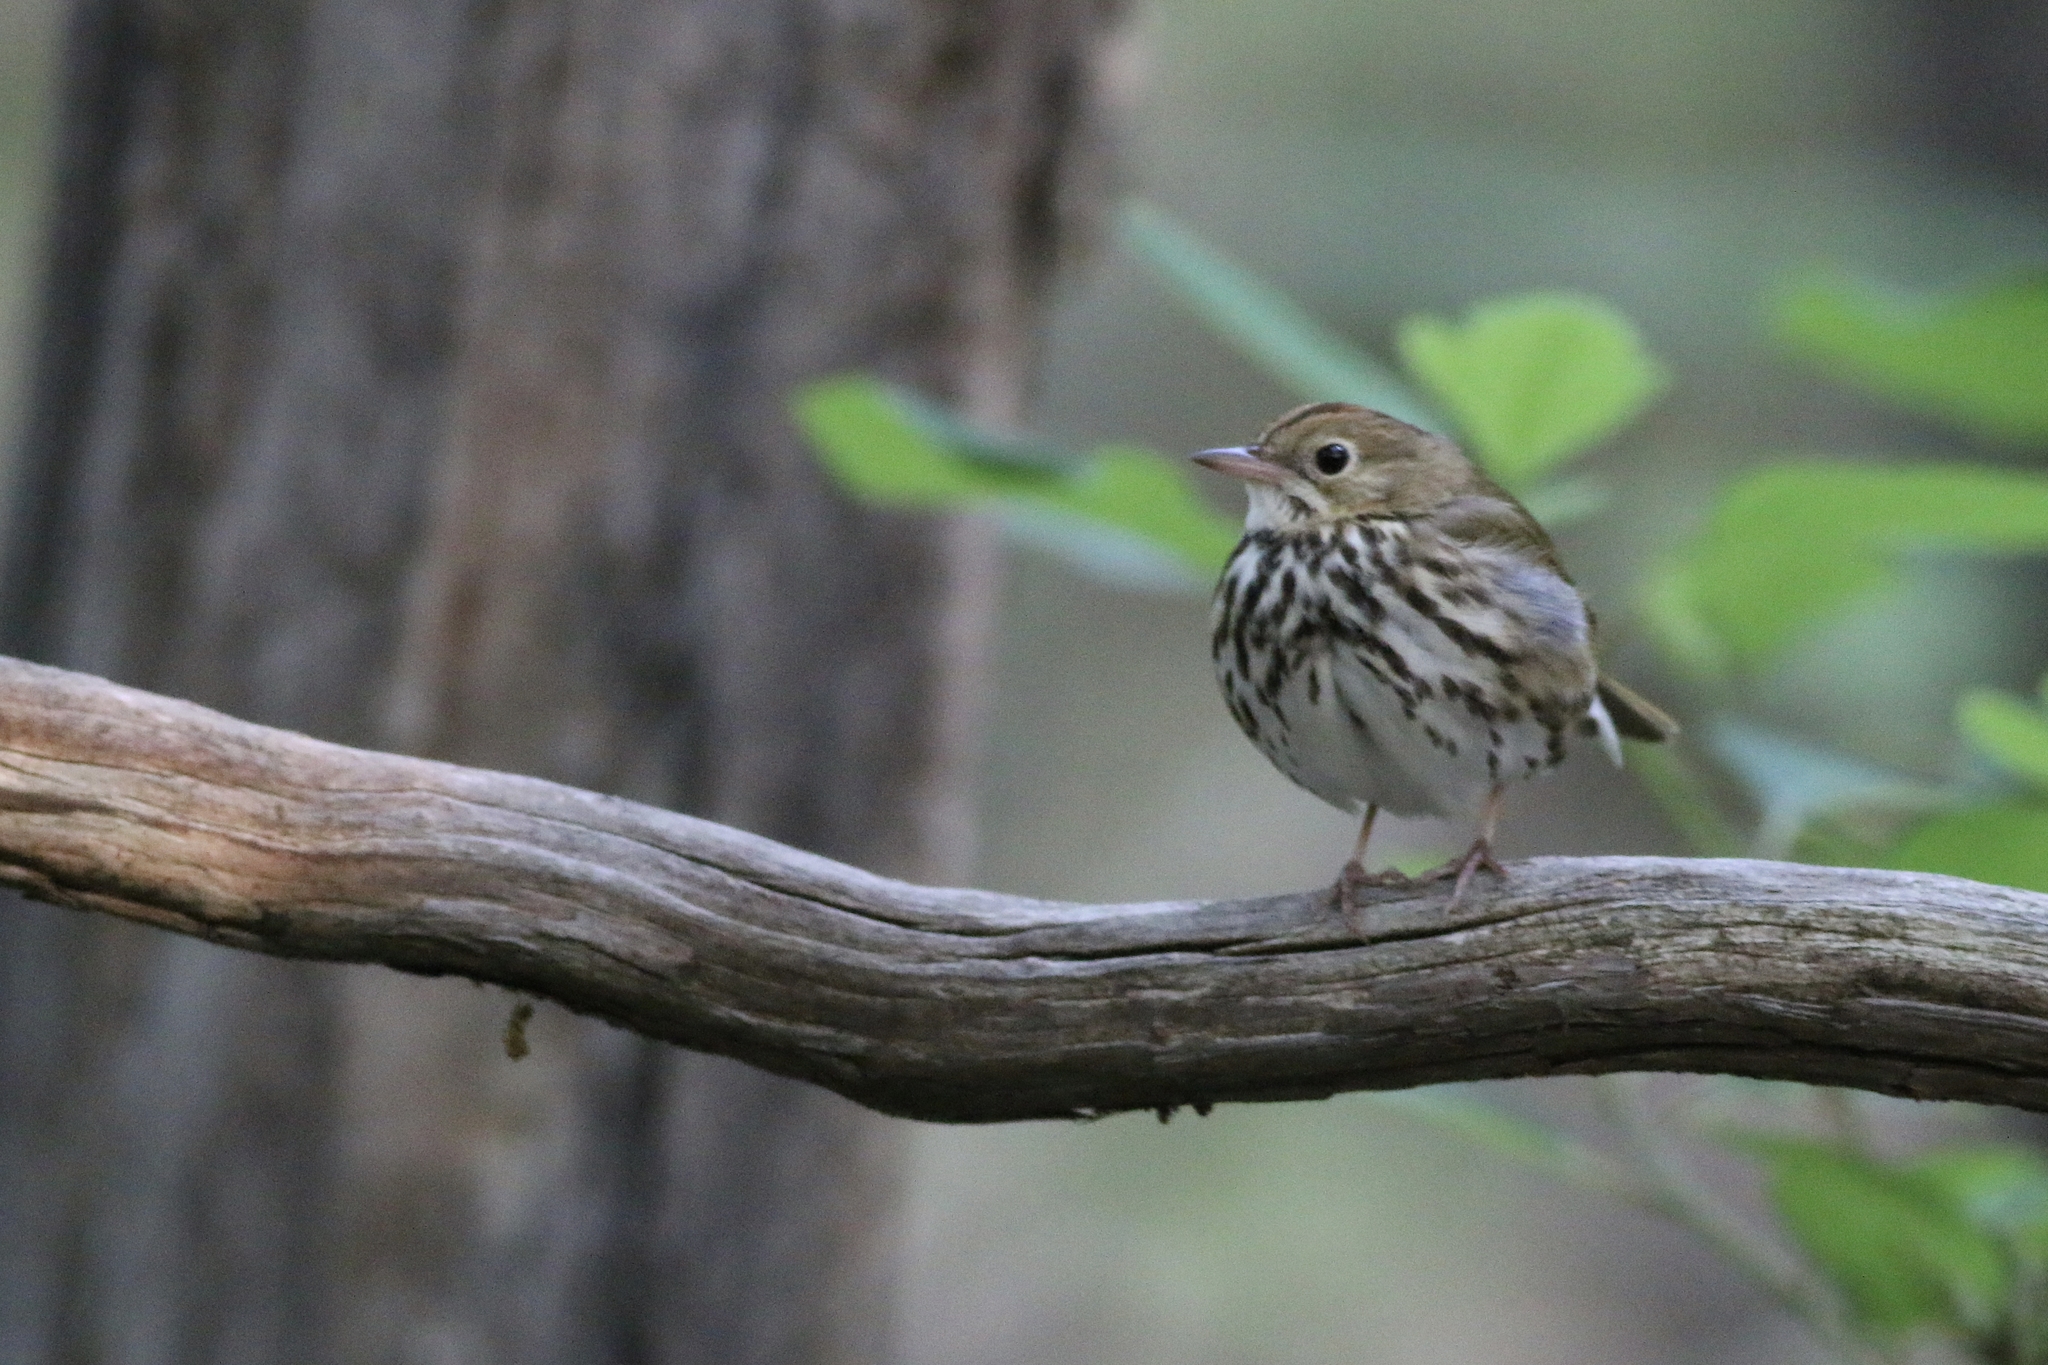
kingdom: Animalia
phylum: Chordata
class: Aves
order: Passeriformes
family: Parulidae
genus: Seiurus
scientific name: Seiurus aurocapilla
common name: Ovenbird
